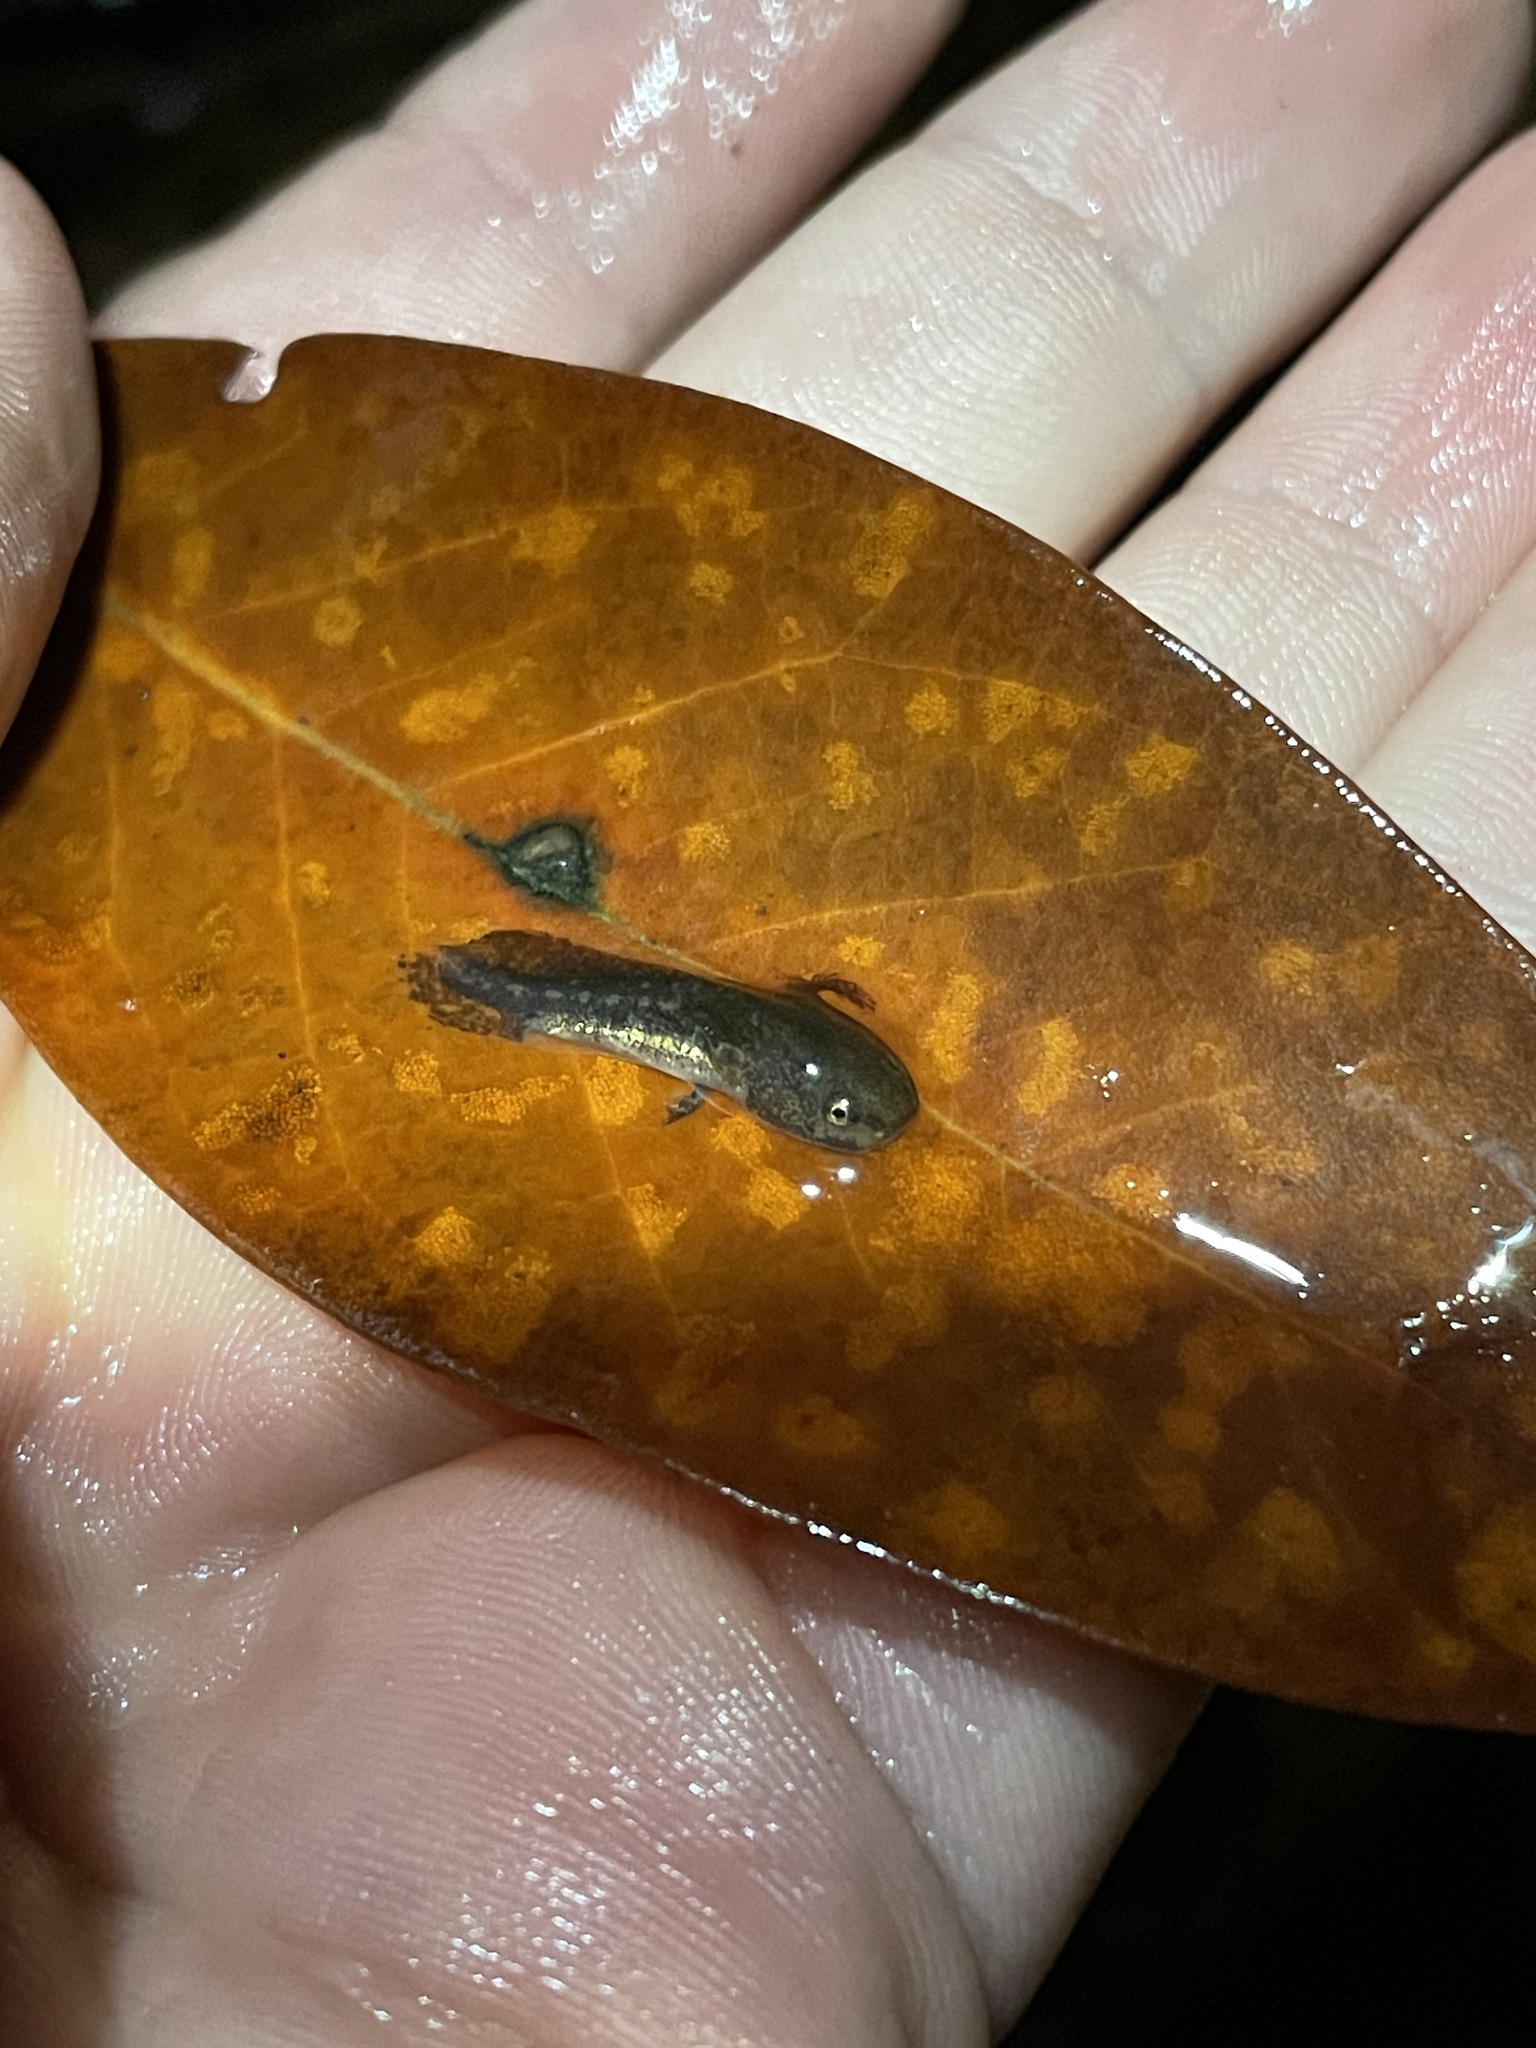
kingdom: Animalia
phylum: Chordata
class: Amphibia
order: Caudata
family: Ambystomatidae
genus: Ambystoma
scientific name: Ambystoma opacum
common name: Marbled salamander
